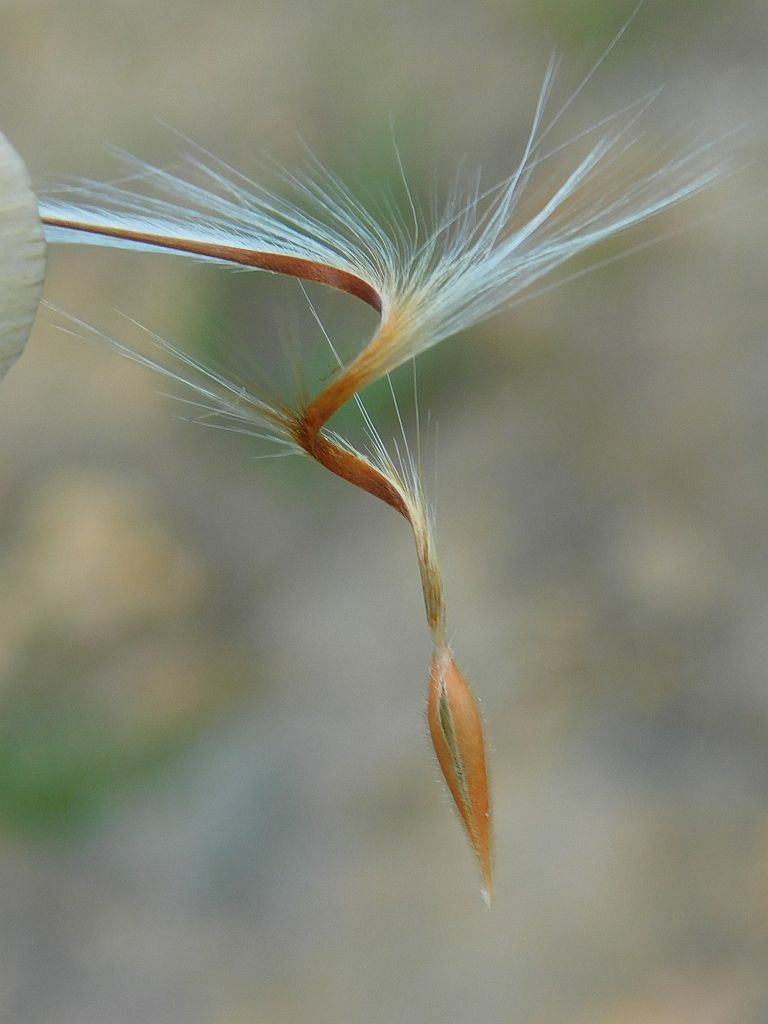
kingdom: Plantae
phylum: Tracheophyta
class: Magnoliopsida
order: Geraniales
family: Geraniaceae
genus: Pelargonium
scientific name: Pelargonium triste
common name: Night-scent pelargonium
